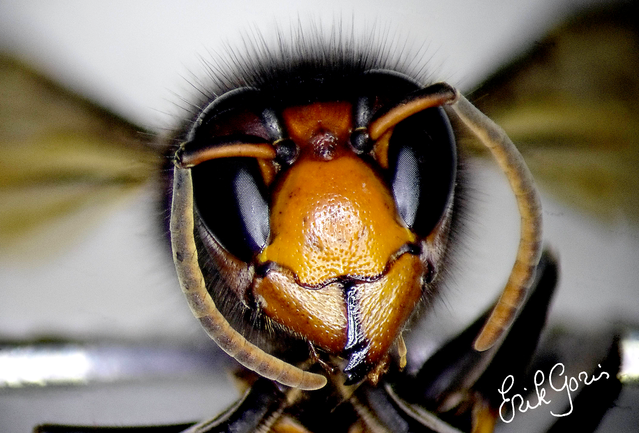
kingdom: Animalia
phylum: Arthropoda
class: Insecta
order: Hymenoptera
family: Vespidae
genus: Vespa
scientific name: Vespa velutina
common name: Asian hornet
